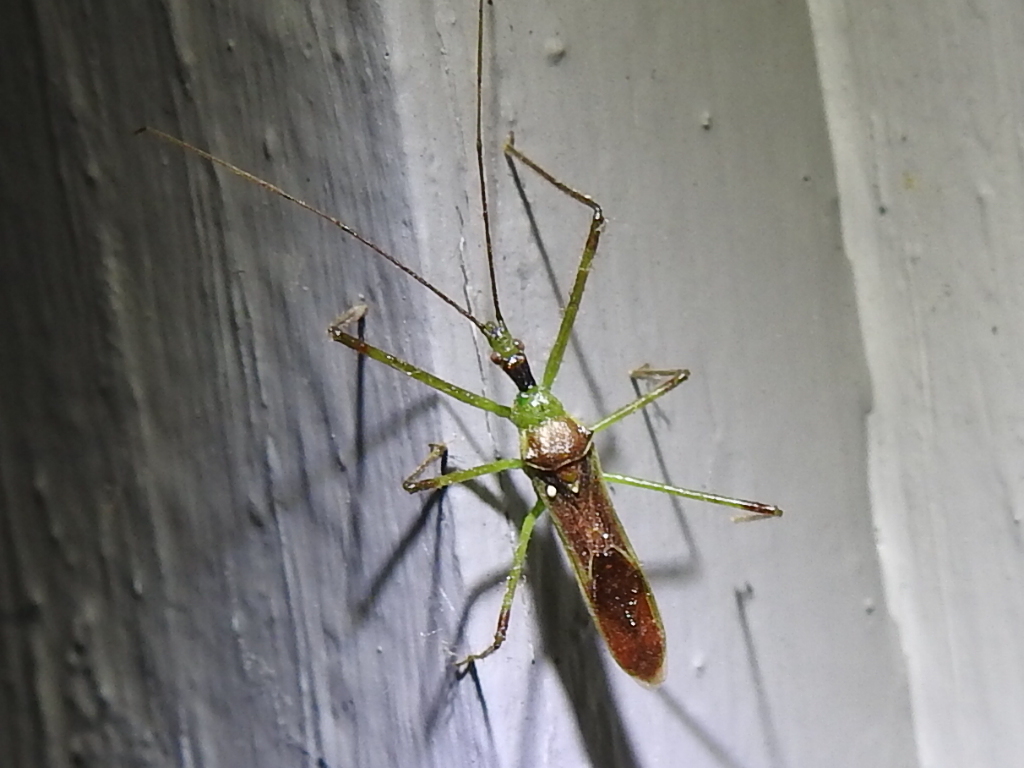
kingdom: Animalia
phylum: Arthropoda
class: Insecta
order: Hemiptera
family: Reduviidae
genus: Zelus
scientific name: Zelus luridus
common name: Pale green assassin bug
